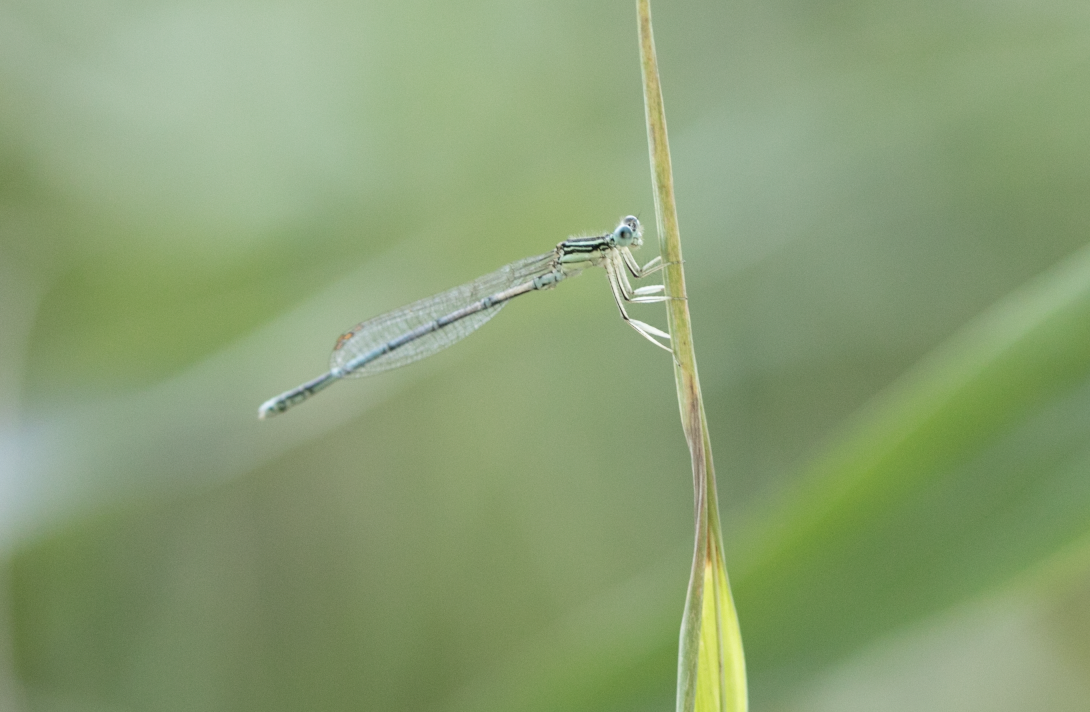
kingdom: Animalia
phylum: Arthropoda
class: Insecta
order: Odonata
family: Platycnemididae
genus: Platycnemis
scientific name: Platycnemis pennipes
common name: White-legged damselfly
